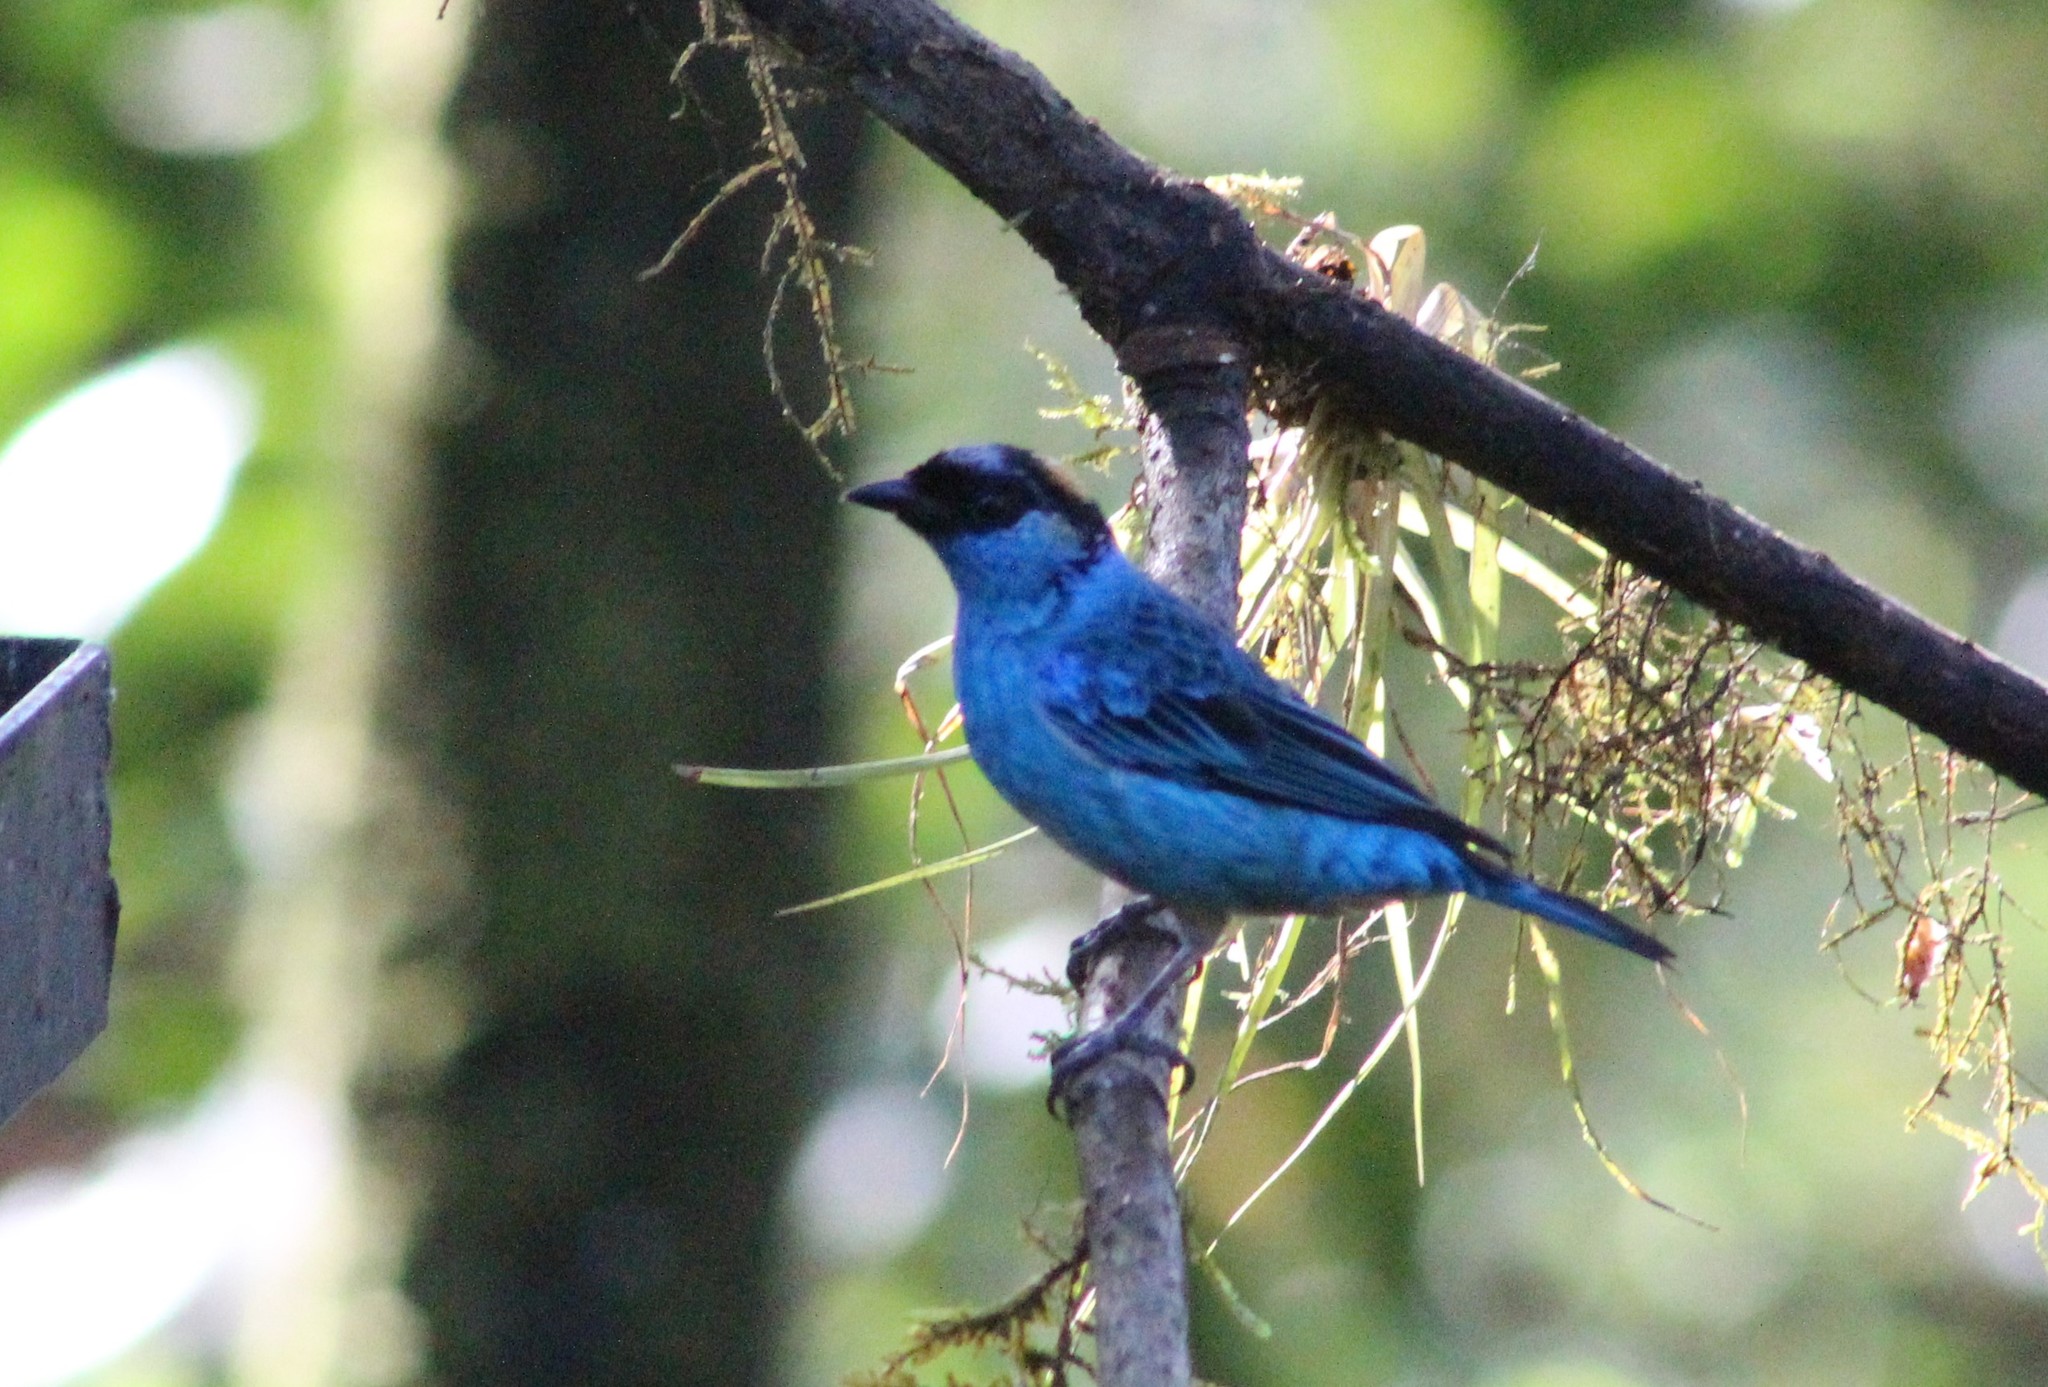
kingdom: Animalia
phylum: Chordata
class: Aves
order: Passeriformes
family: Thraupidae
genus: Chalcothraupis
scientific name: Chalcothraupis ruficervix
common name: Golden-naped tanager
